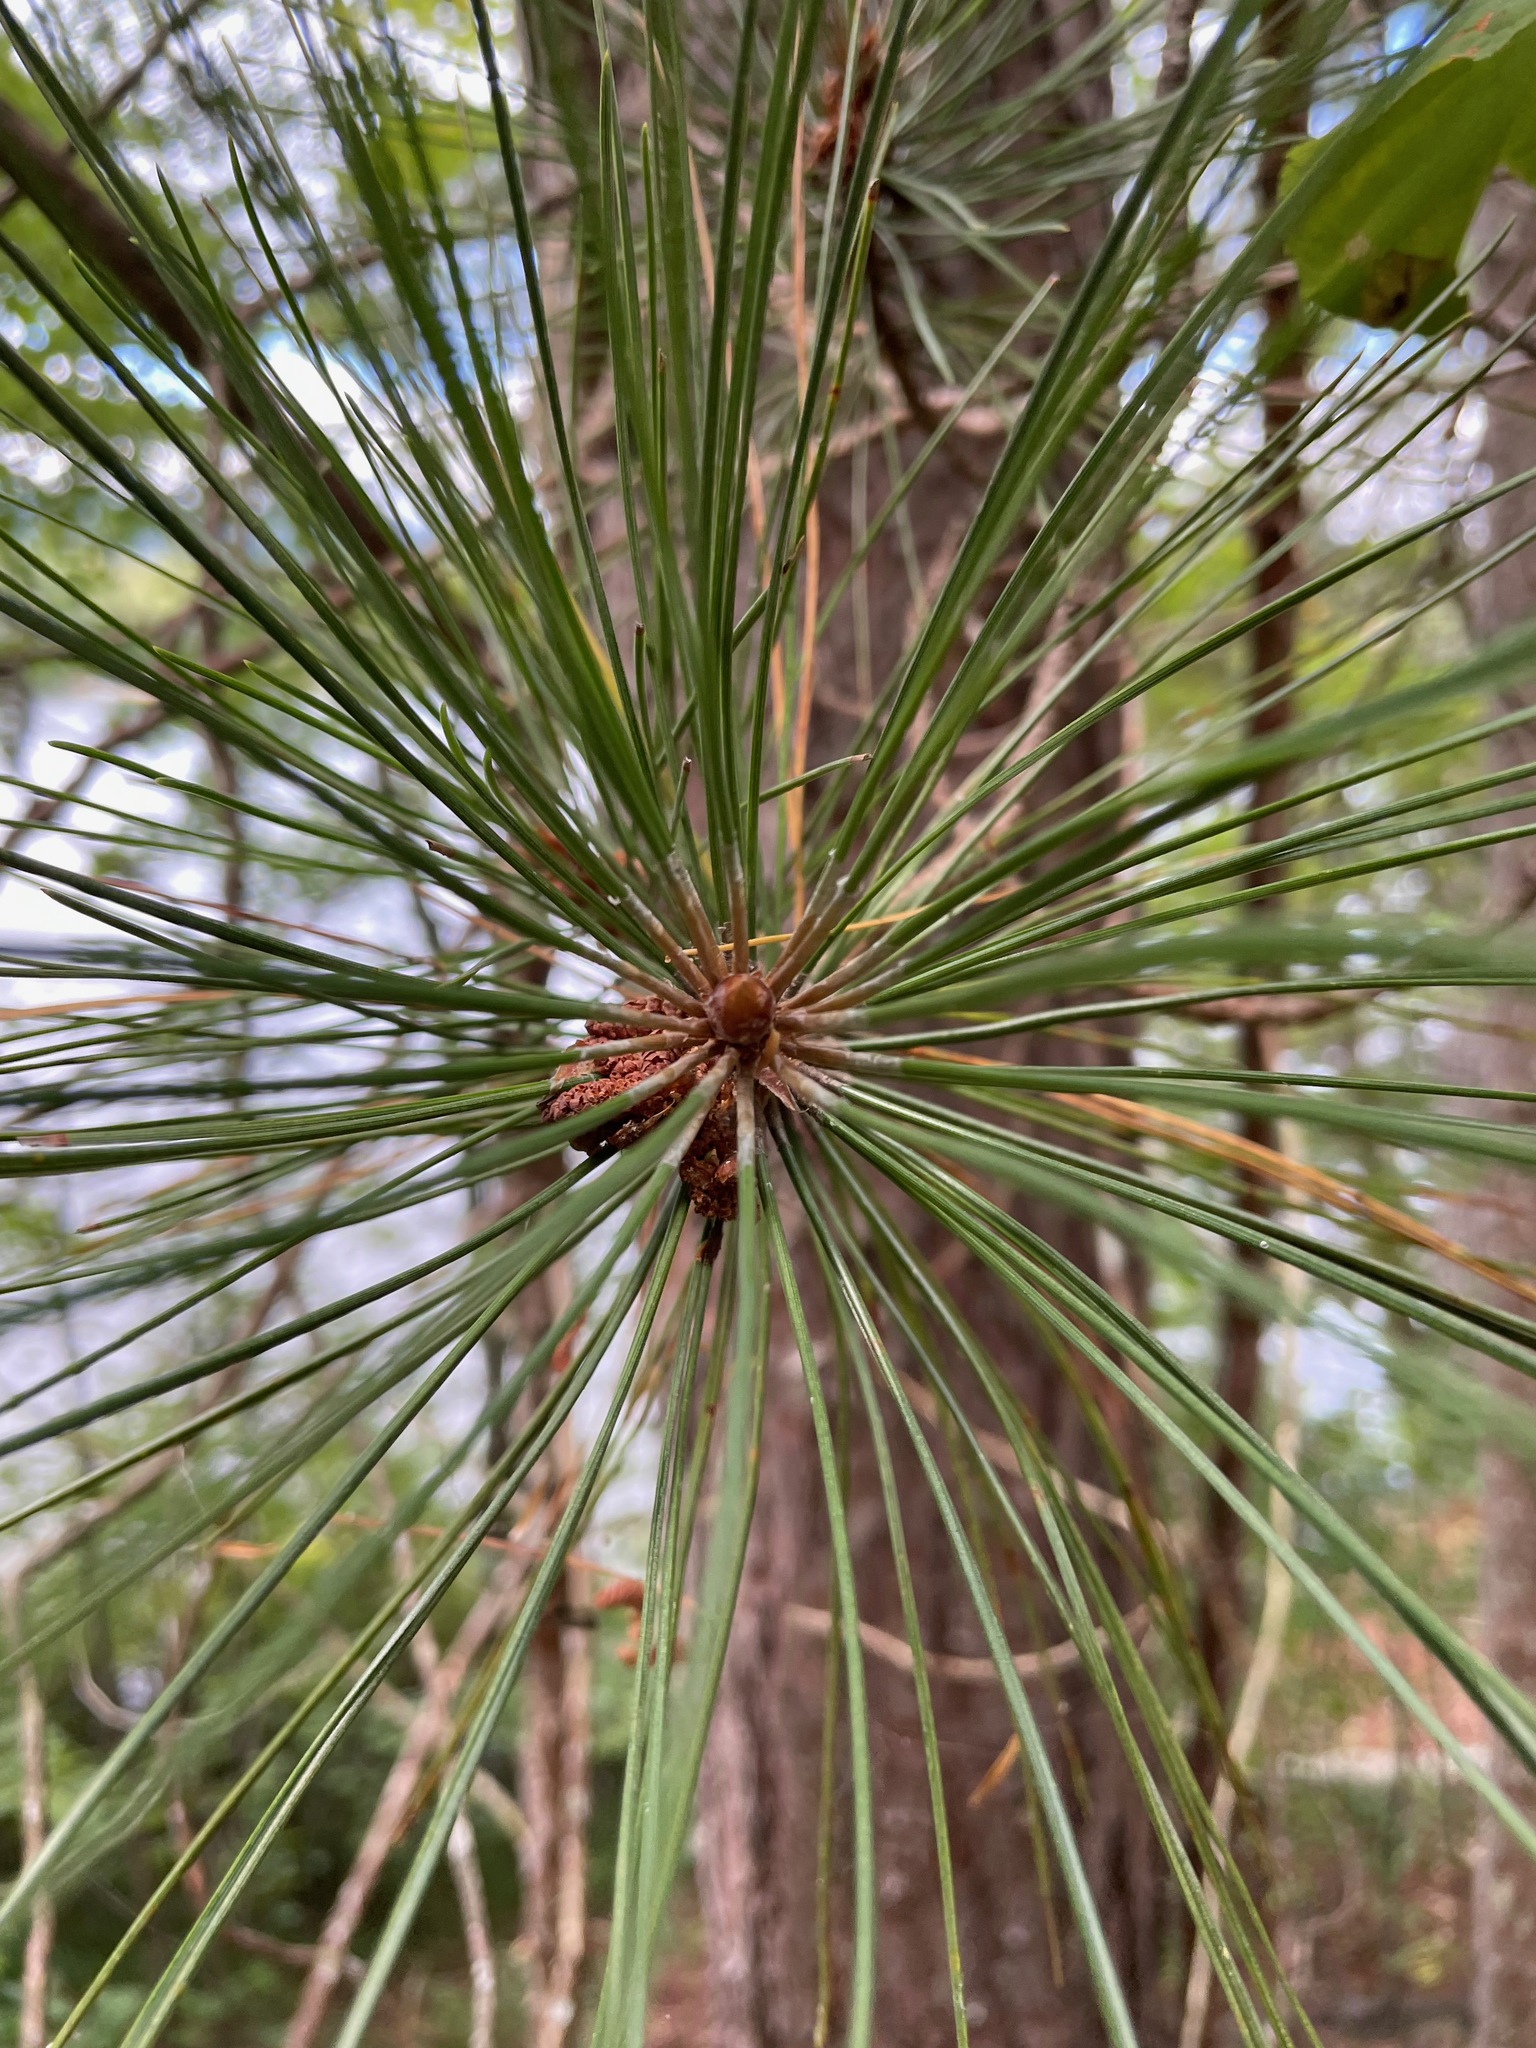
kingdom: Plantae
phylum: Tracheophyta
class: Pinopsida
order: Pinales
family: Pinaceae
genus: Pinus
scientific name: Pinus resinosa
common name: Norway pine
